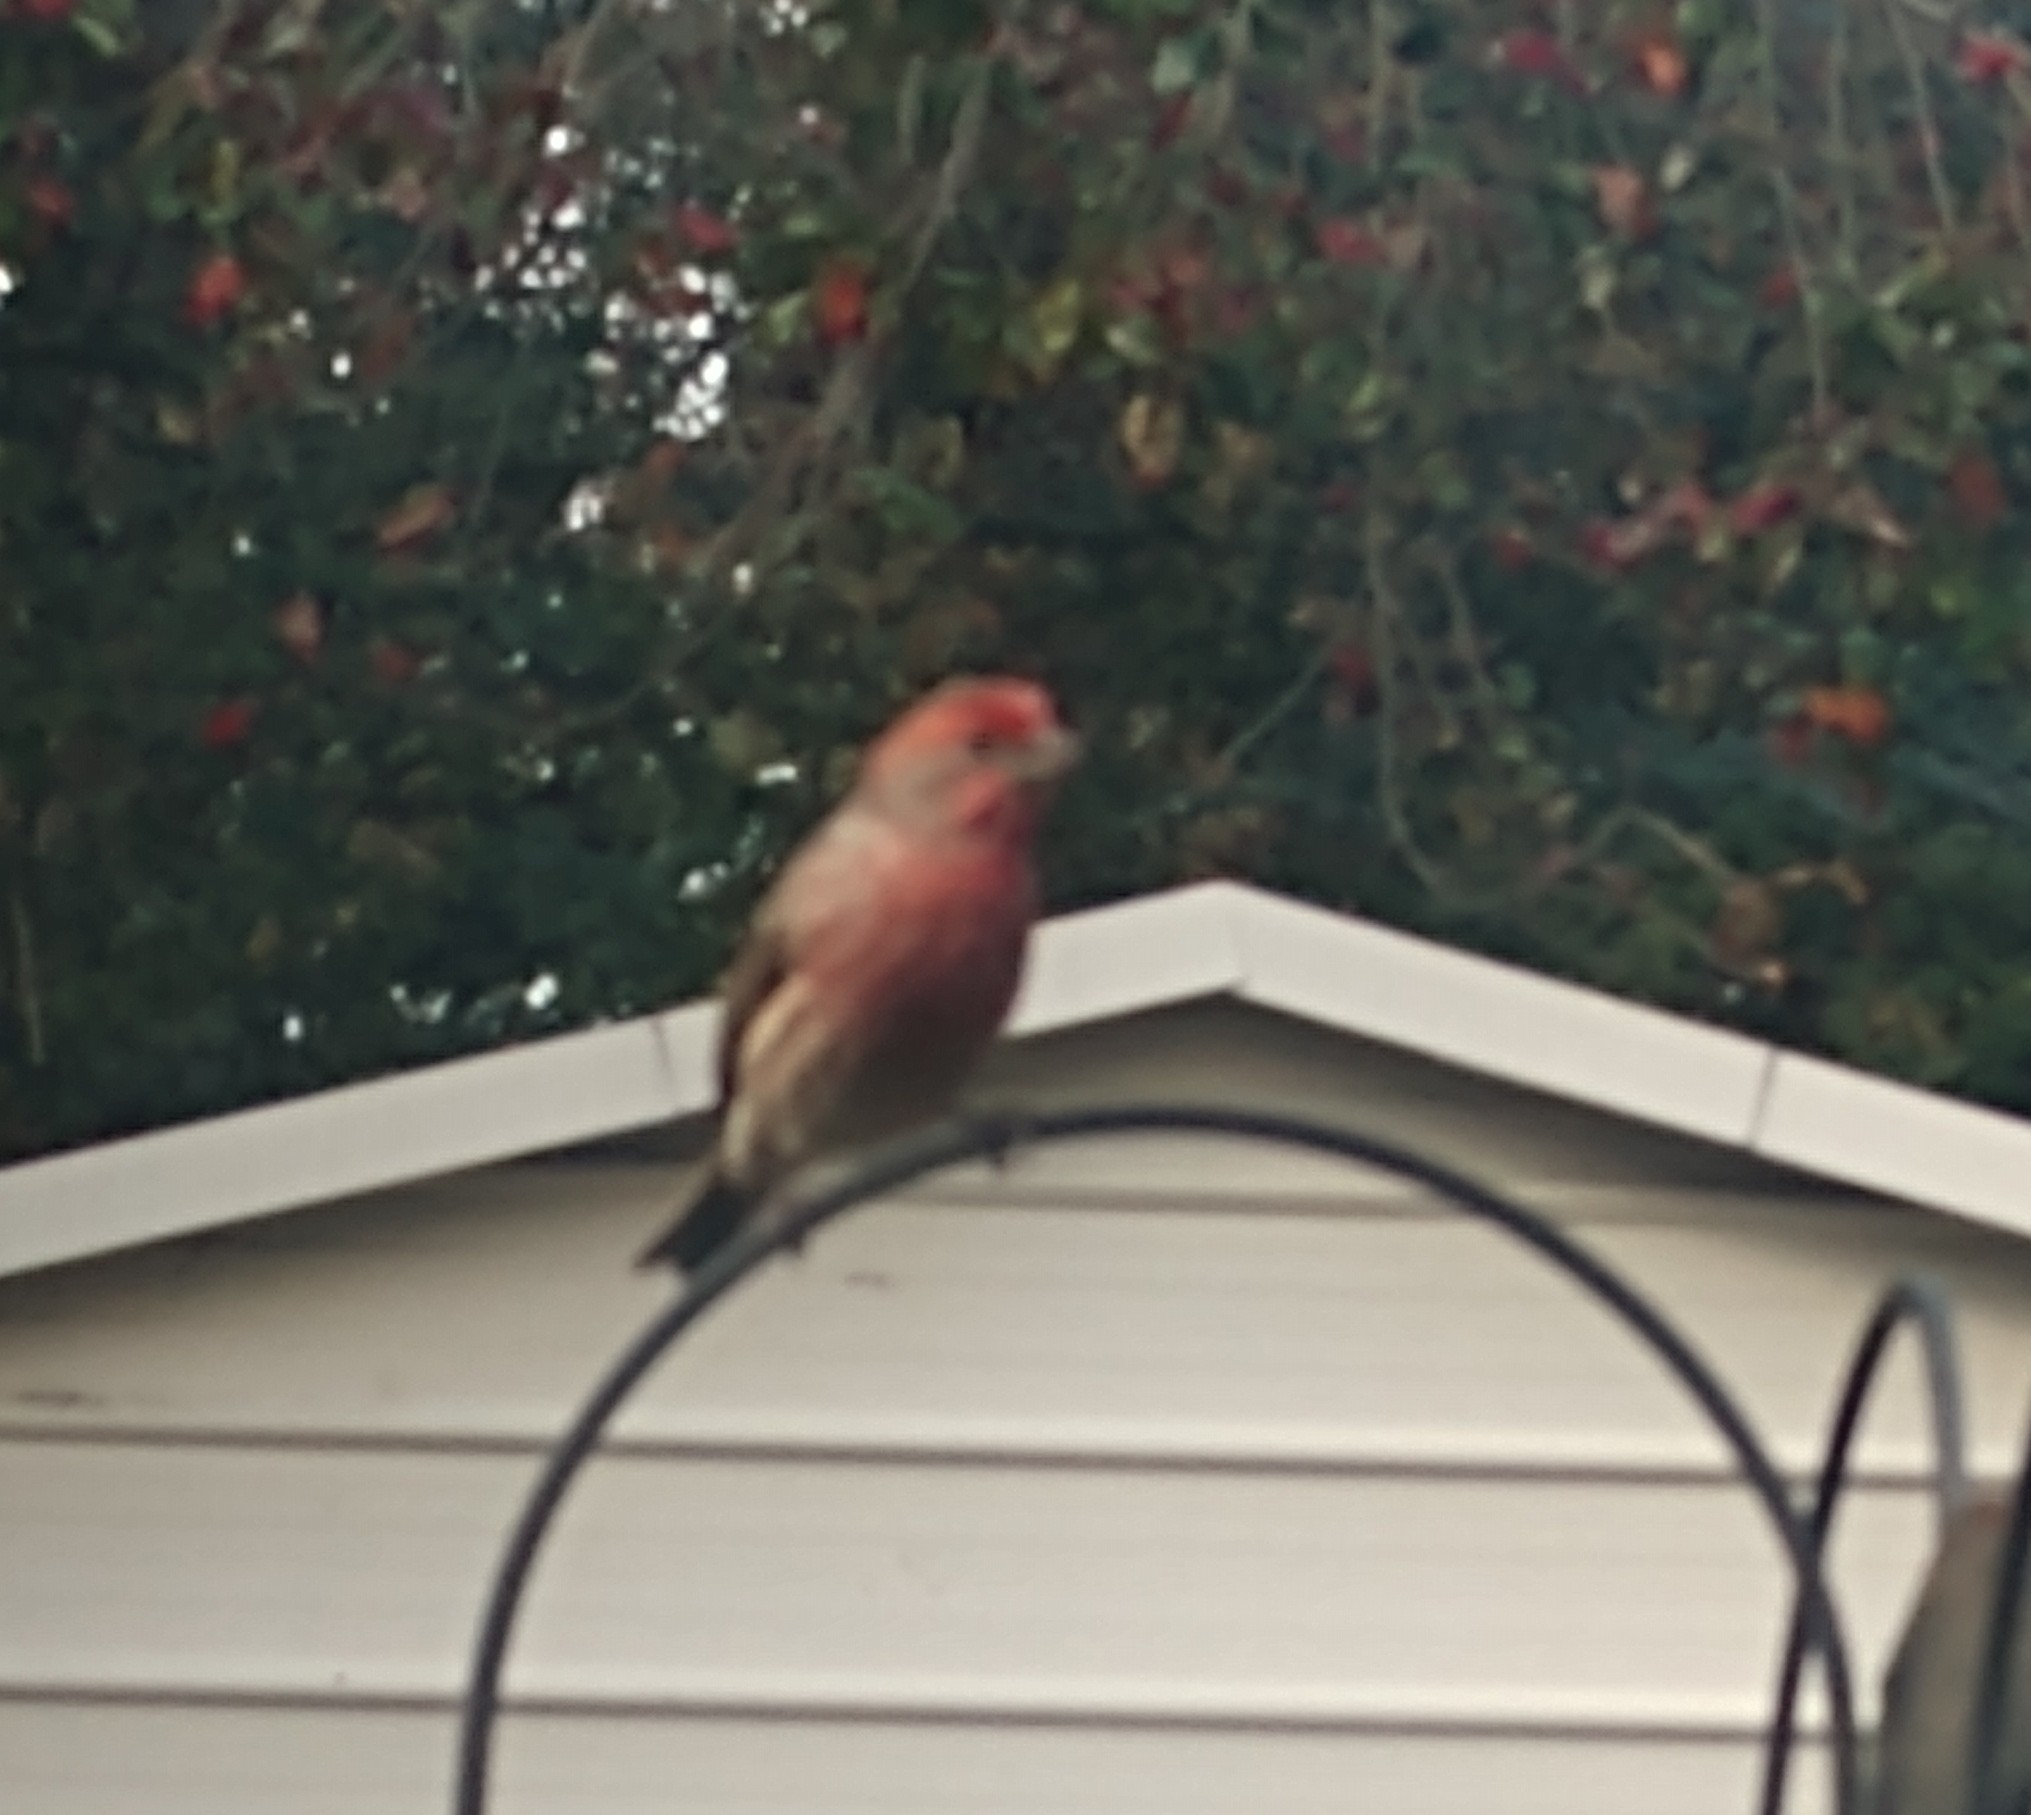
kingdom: Animalia
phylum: Chordata
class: Aves
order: Passeriformes
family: Fringillidae
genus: Haemorhous
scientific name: Haemorhous mexicanus
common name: House finch
